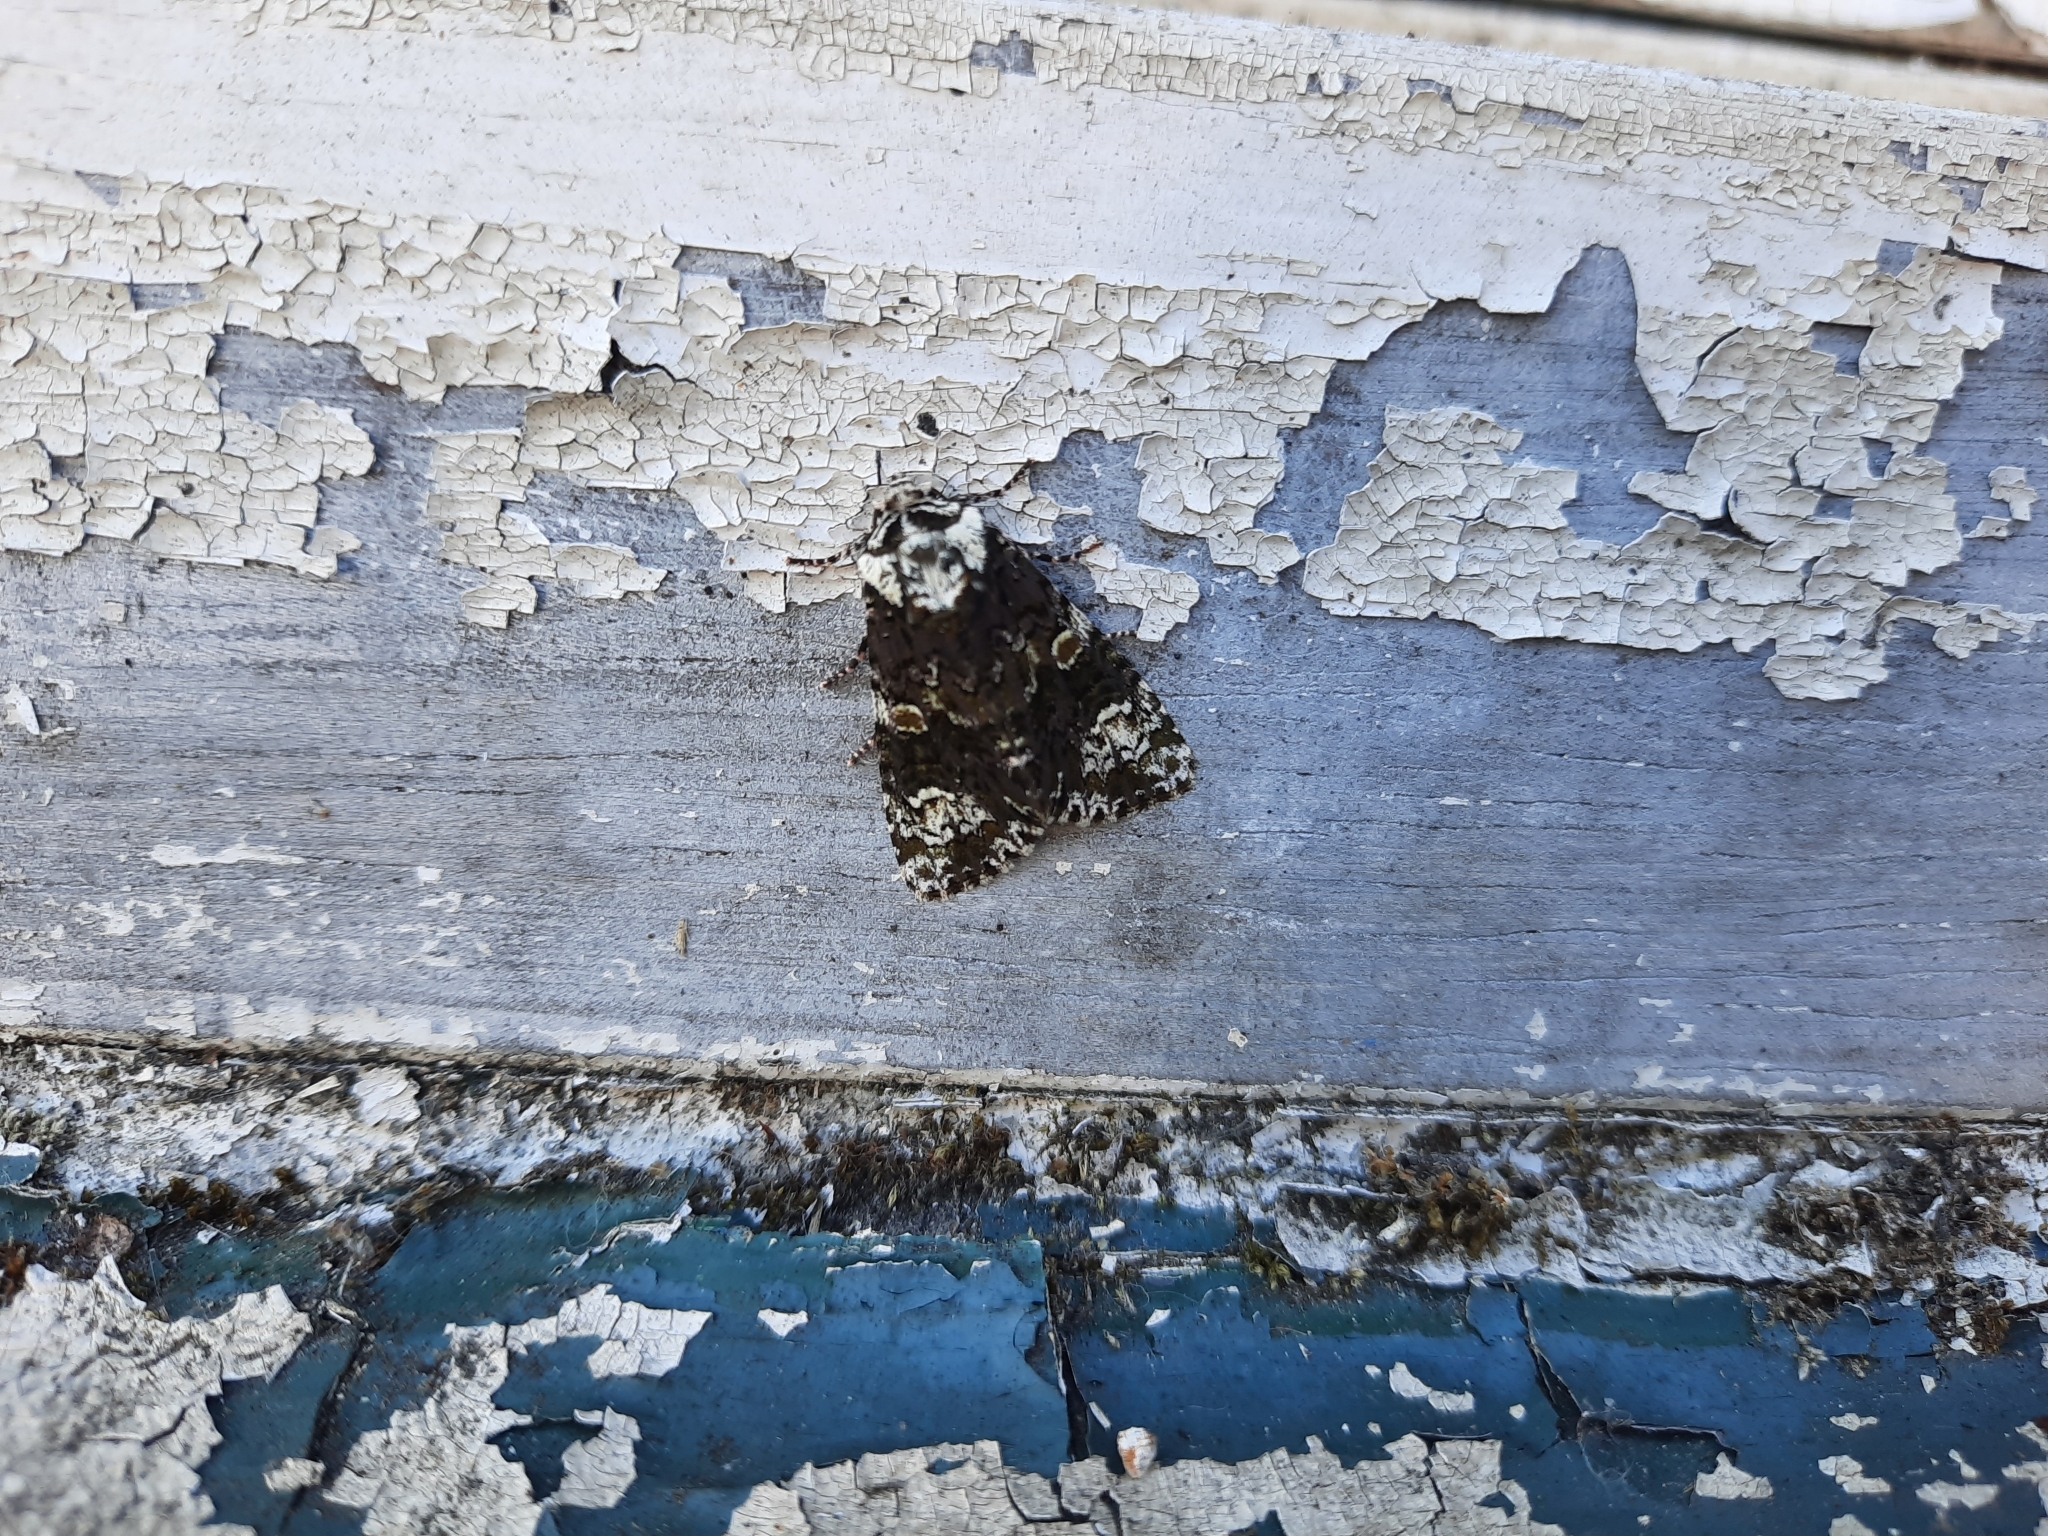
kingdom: Animalia
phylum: Arthropoda
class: Insecta
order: Lepidoptera
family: Noctuidae
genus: Craniophora
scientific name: Craniophora ligustri
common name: Coronet
